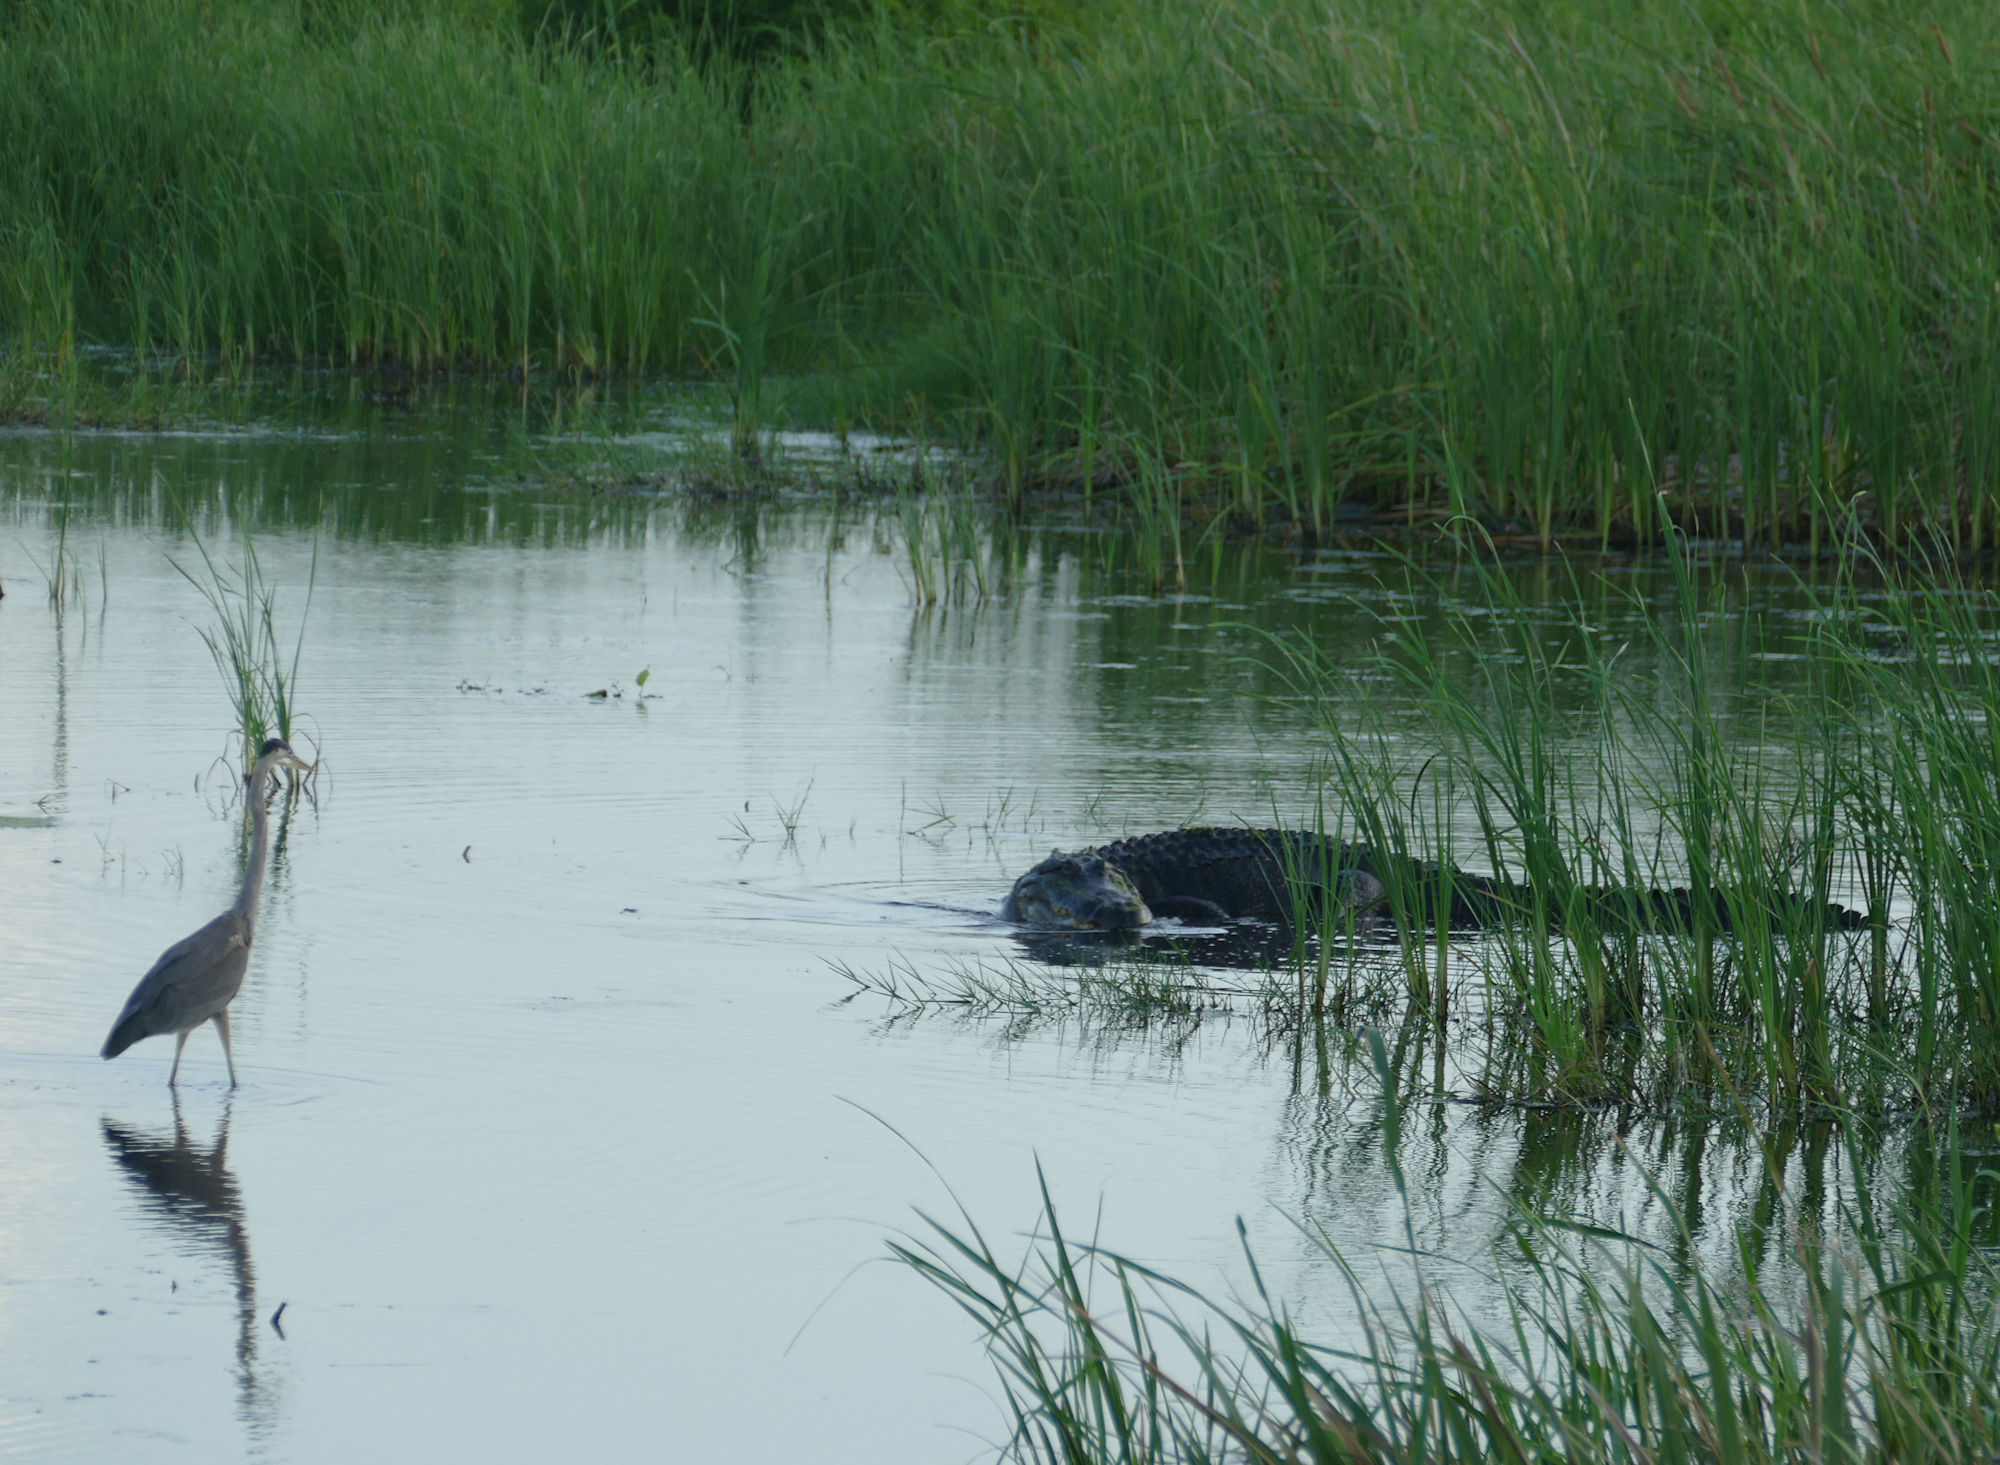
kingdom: Animalia
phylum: Chordata
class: Crocodylia
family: Alligatoridae
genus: Alligator
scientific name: Alligator mississippiensis
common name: American alligator
